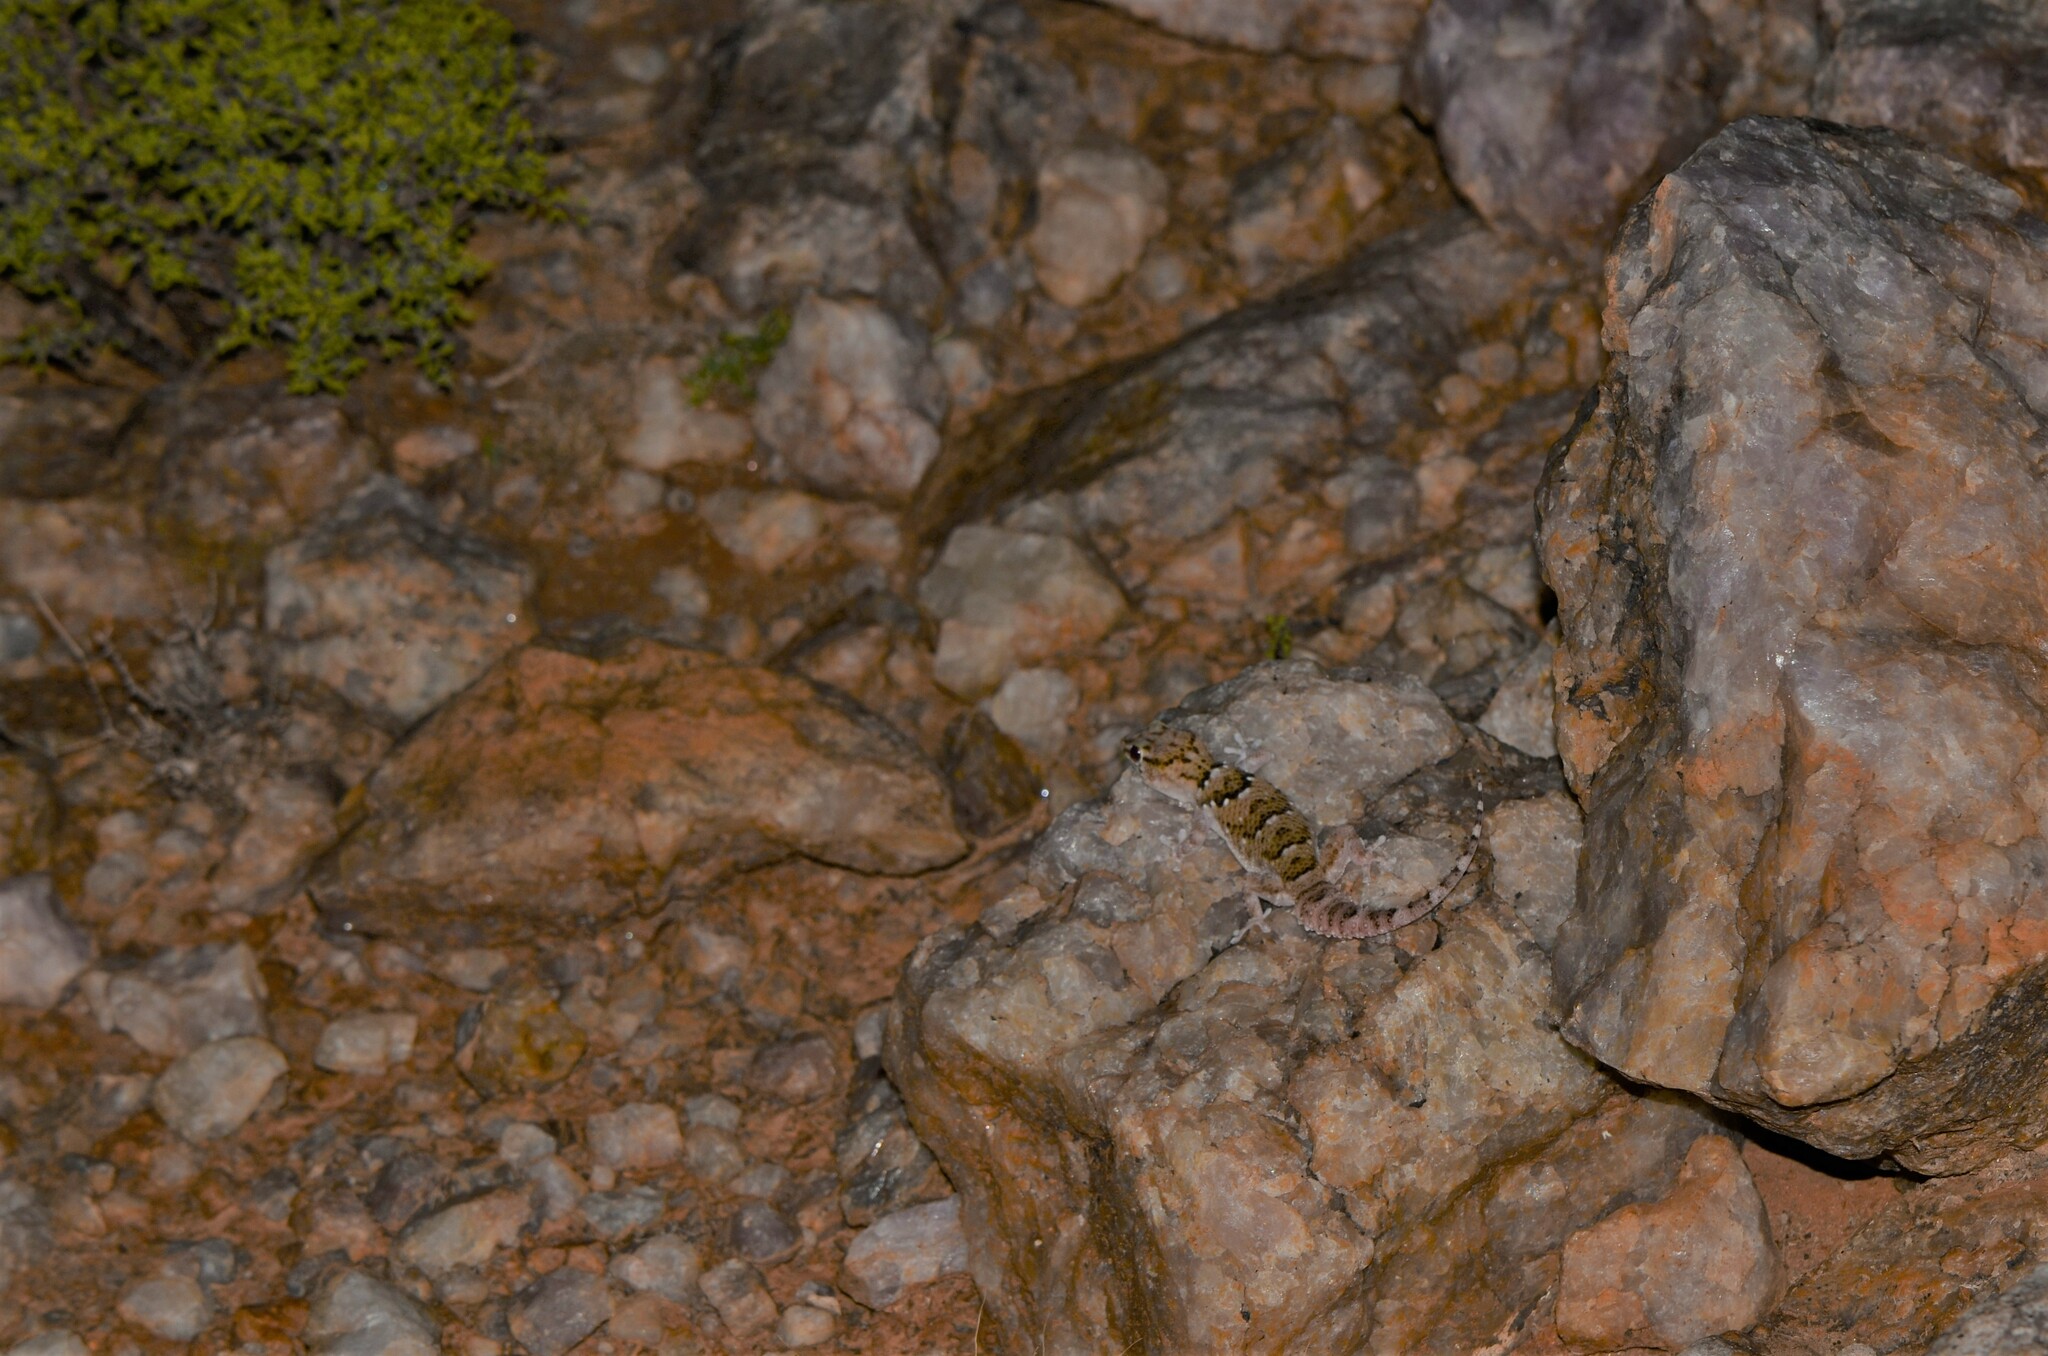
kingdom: Animalia
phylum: Chordata
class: Squamata
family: Gekkonidae
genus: Chondrodactylus
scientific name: Chondrodactylus laevigatus
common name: Fischer's thick-toed gecko
